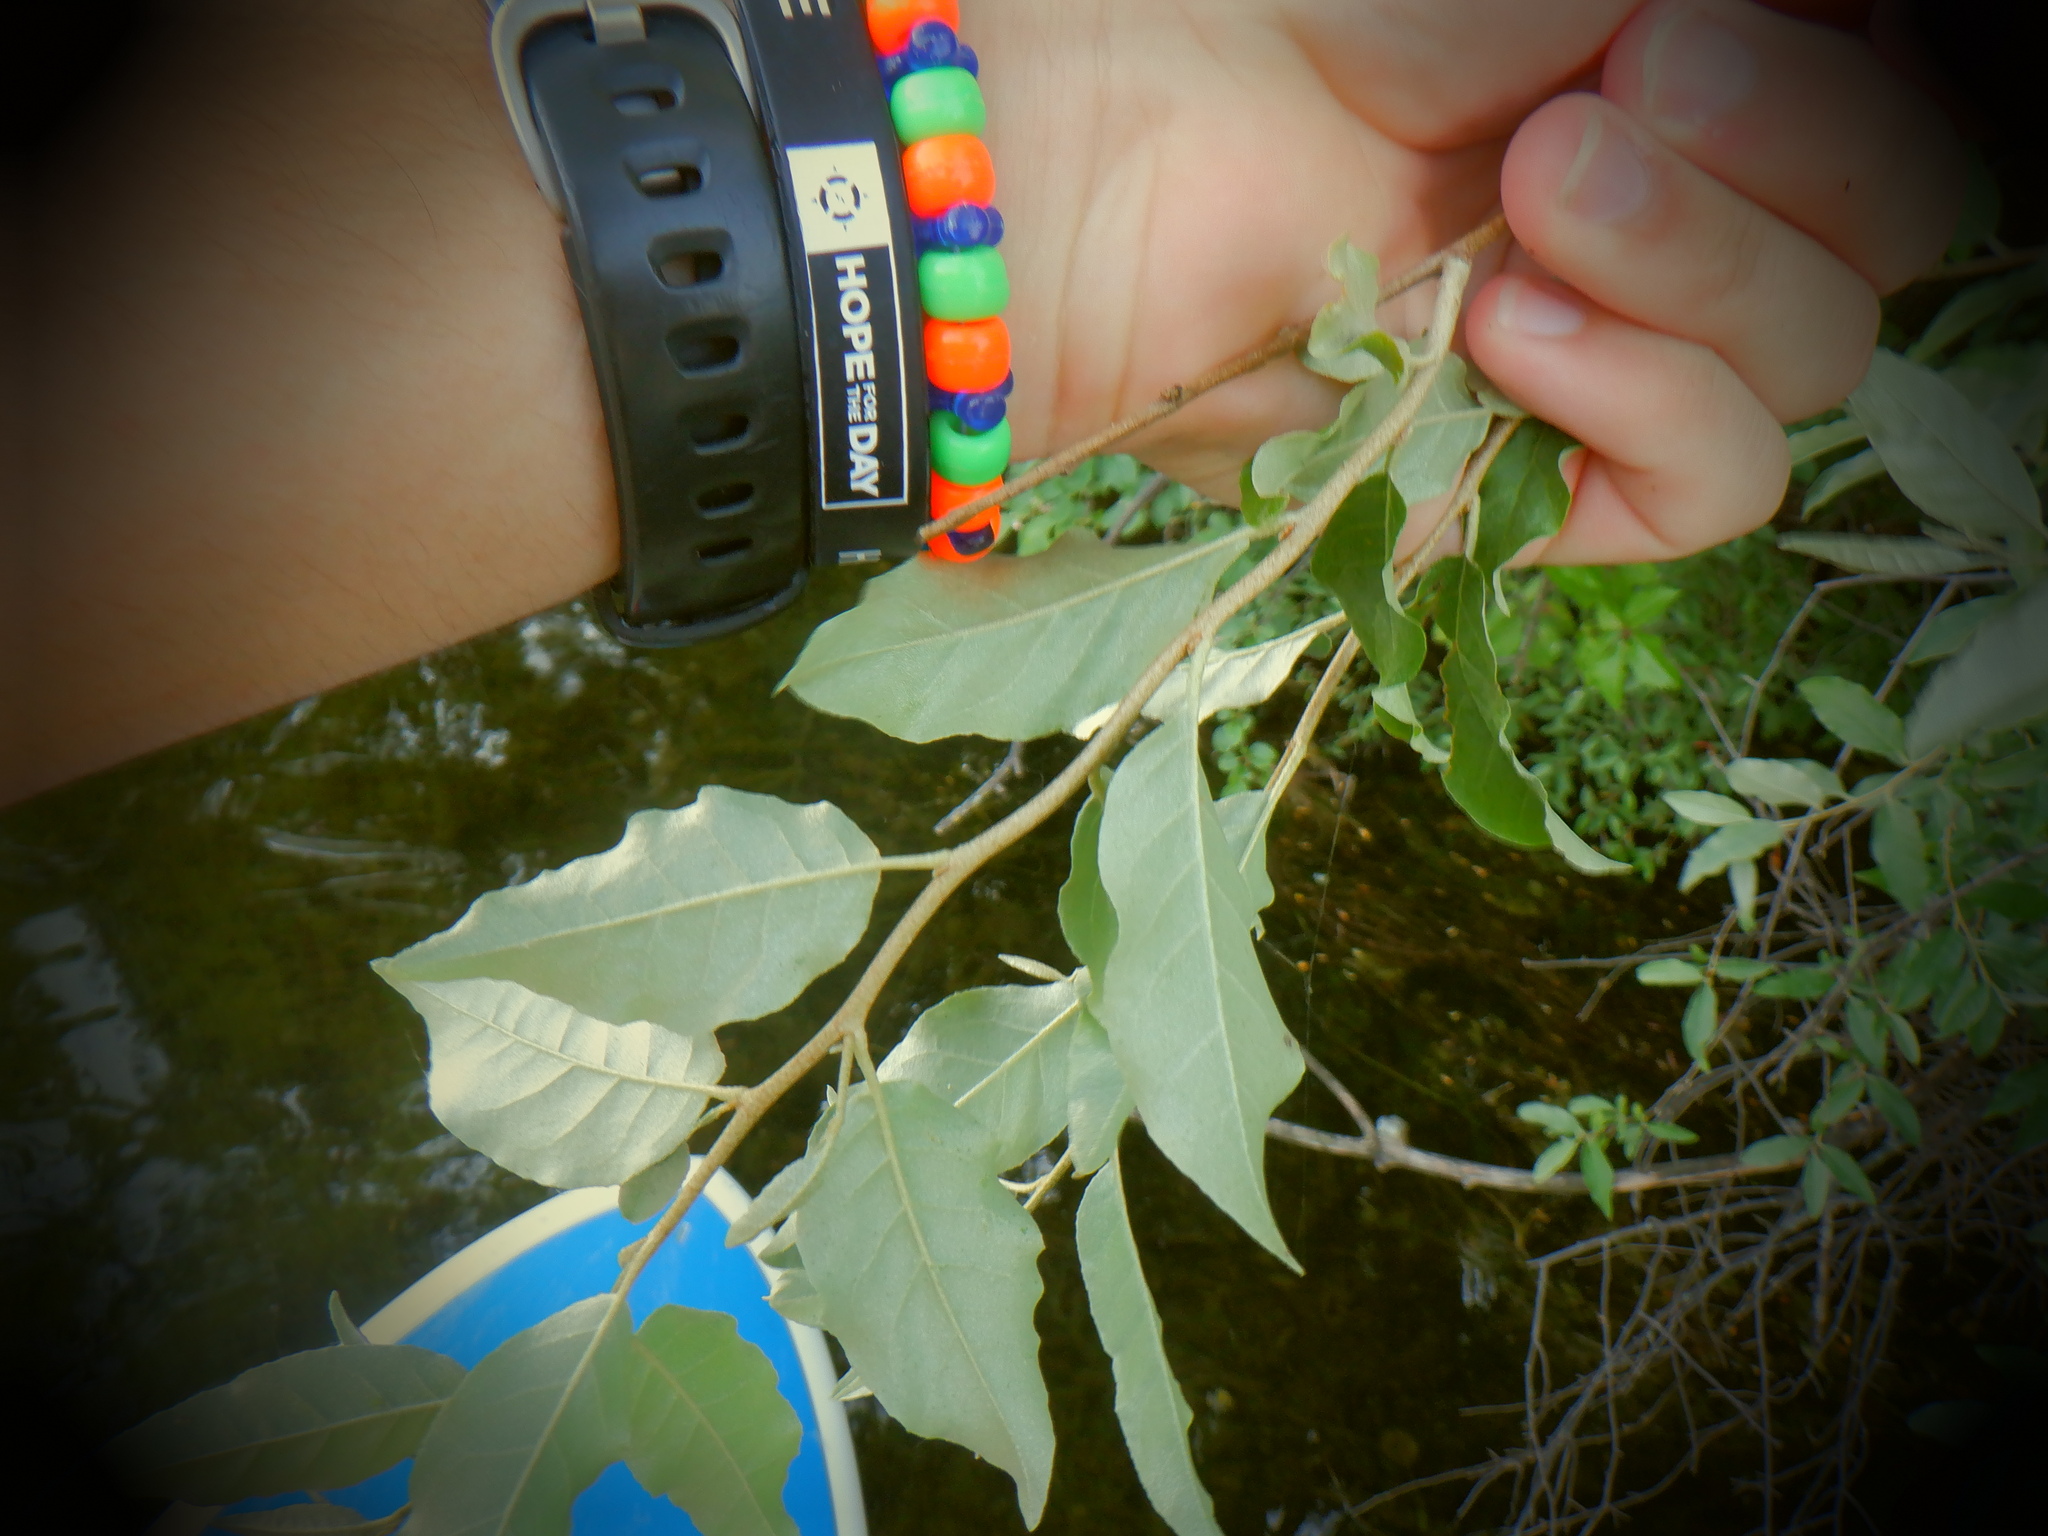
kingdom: Plantae
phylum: Tracheophyta
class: Magnoliopsida
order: Rosales
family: Elaeagnaceae
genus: Elaeagnus
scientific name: Elaeagnus umbellata
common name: Autumn olive
